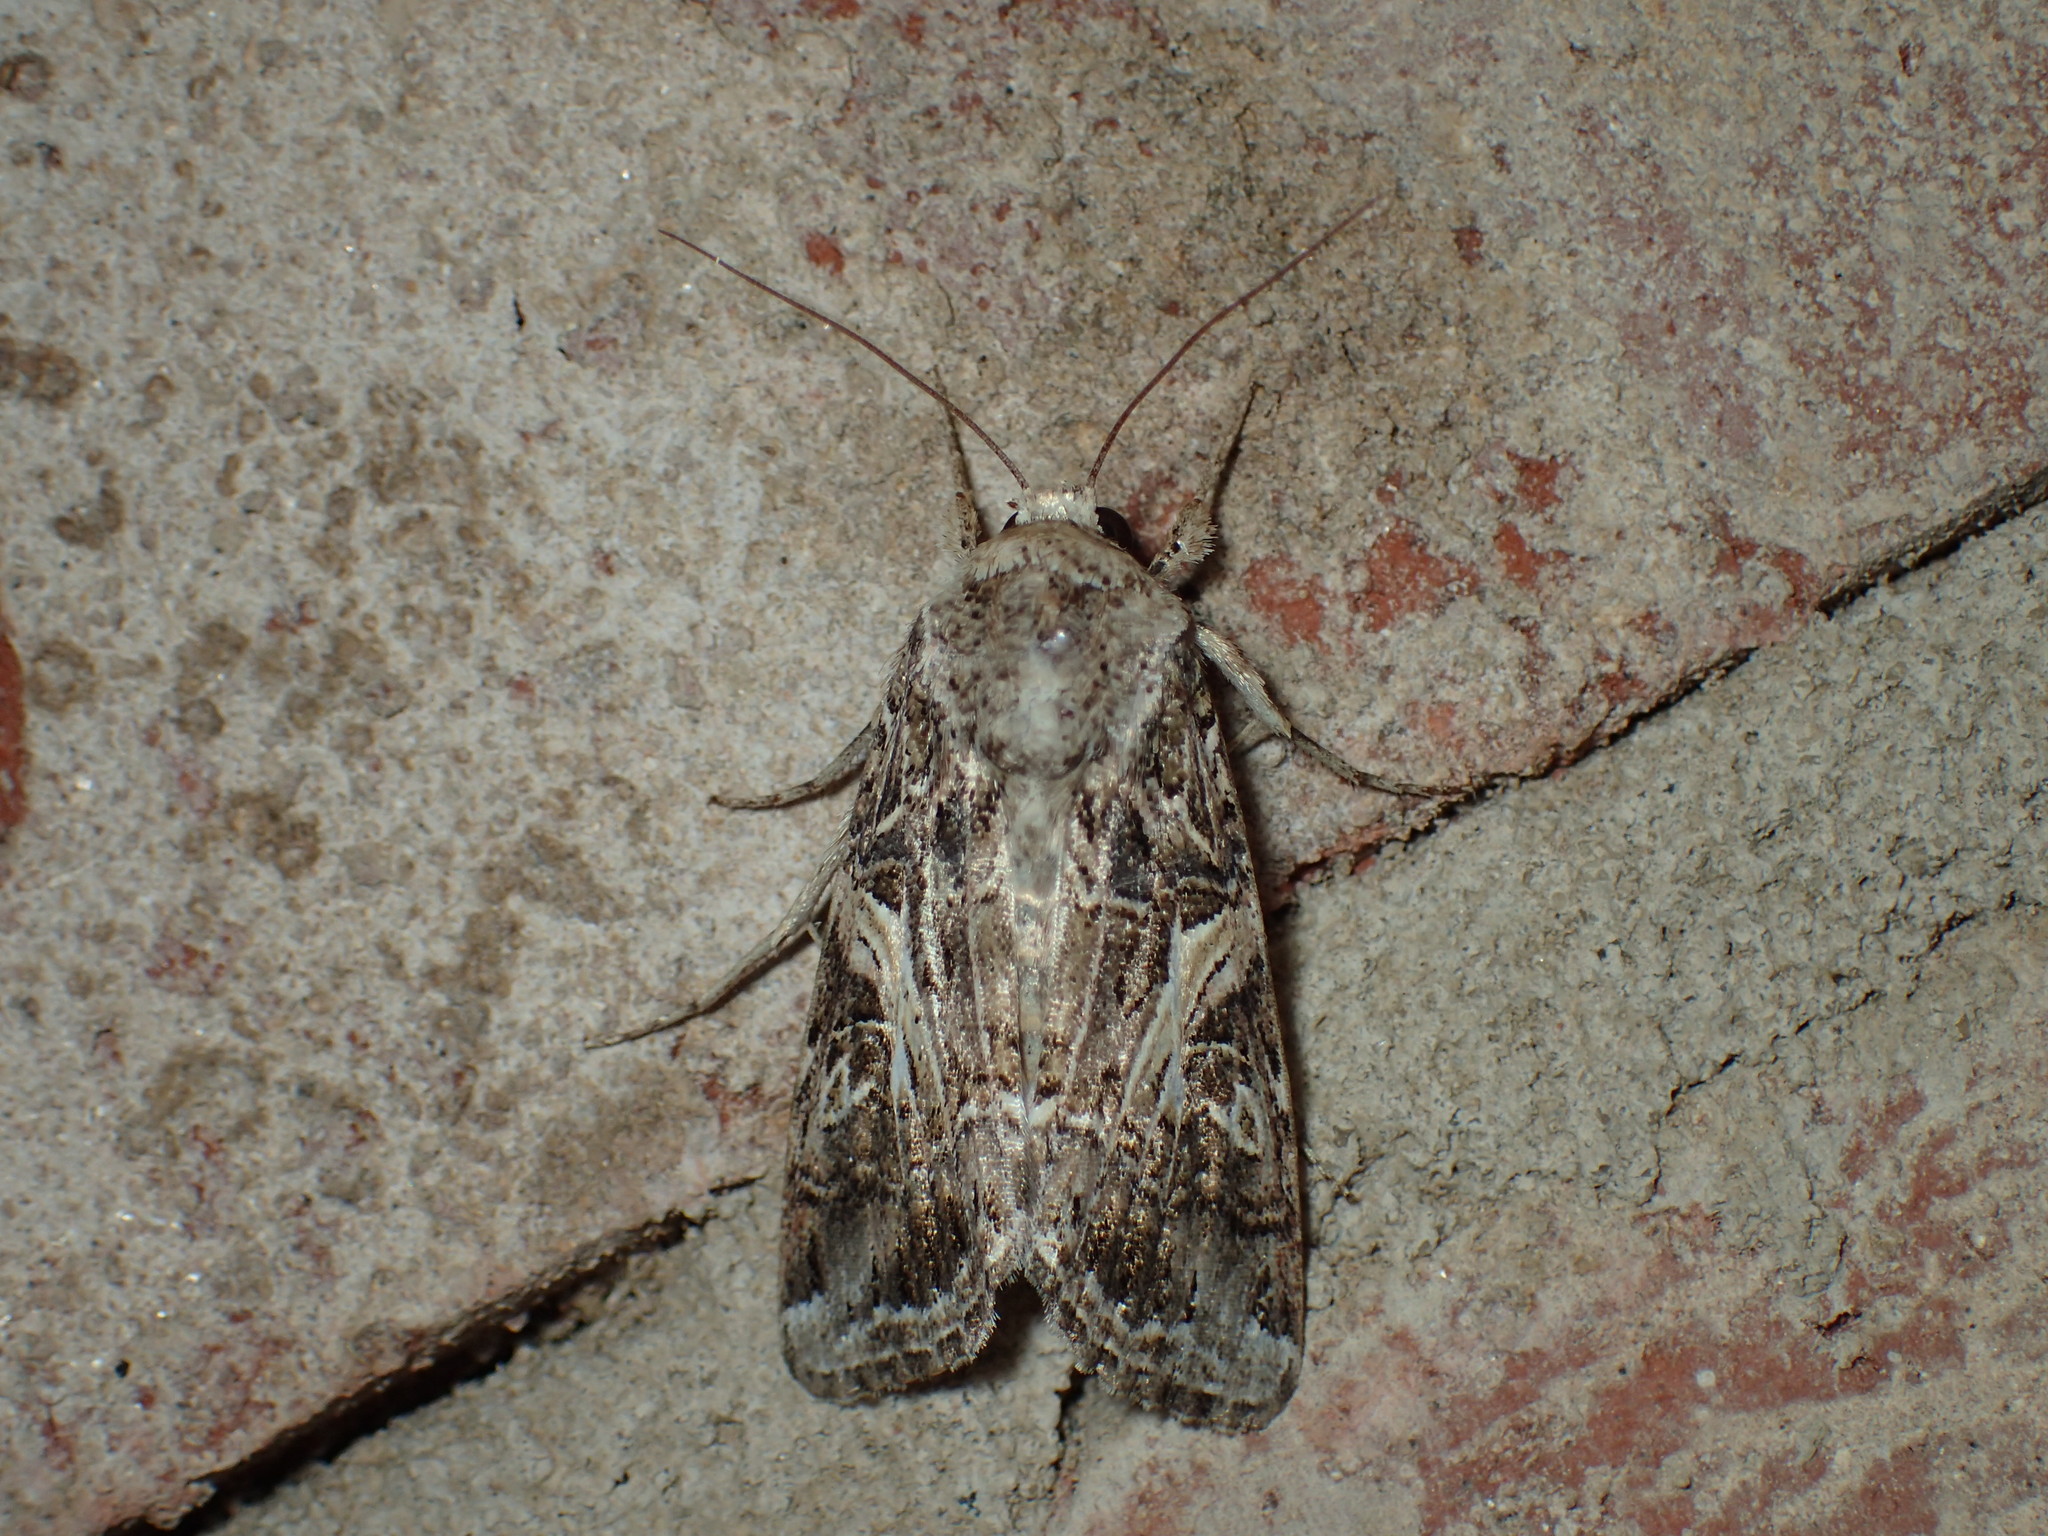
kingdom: Animalia
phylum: Arthropoda
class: Insecta
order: Lepidoptera
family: Noctuidae
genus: Spodoptera
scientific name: Spodoptera ornithogalli
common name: Yellow-striped armyworm
